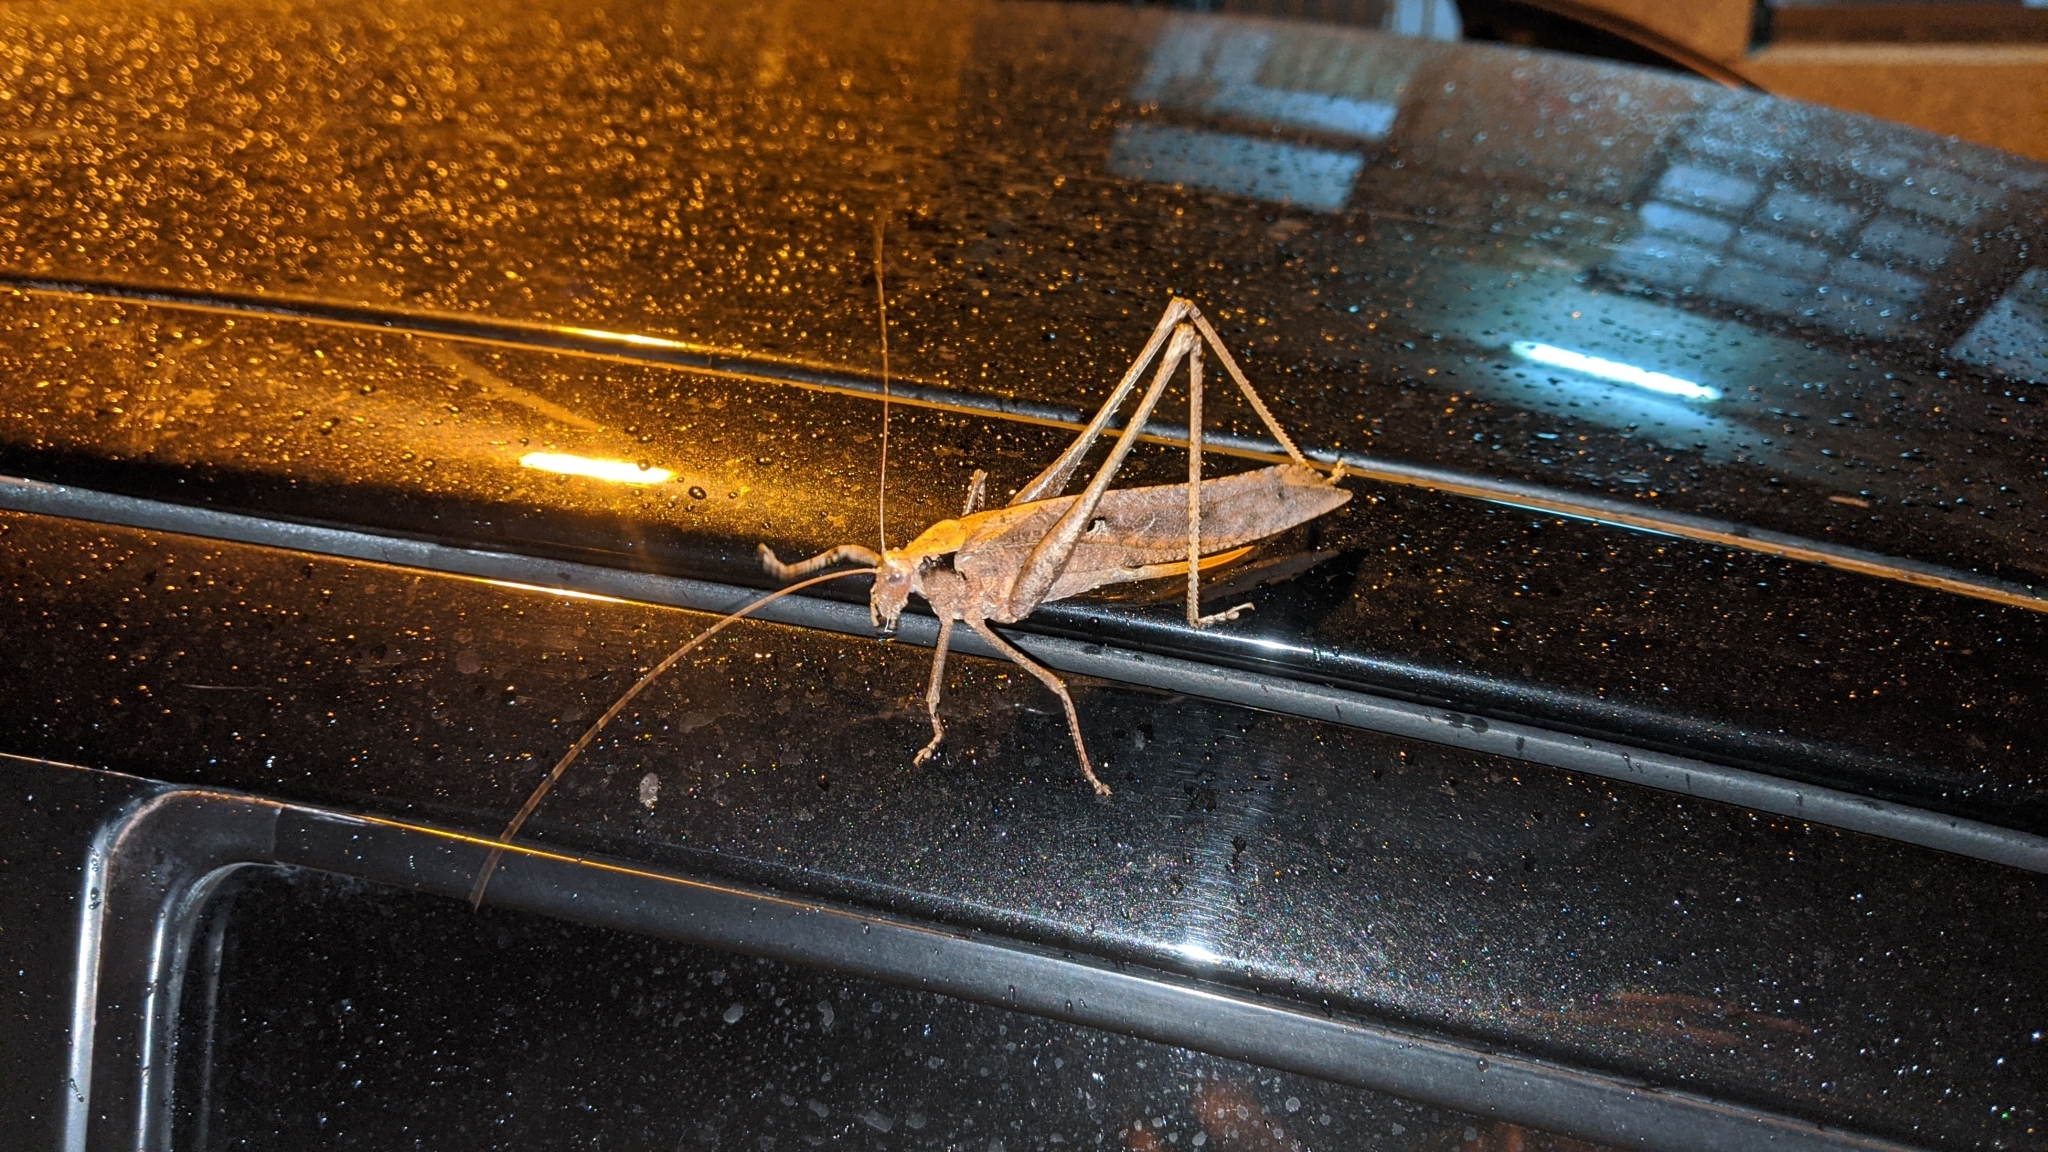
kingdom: Animalia
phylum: Arthropoda
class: Insecta
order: Orthoptera
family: Tettigoniidae
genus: Mecopoda
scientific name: Mecopoda elongata
